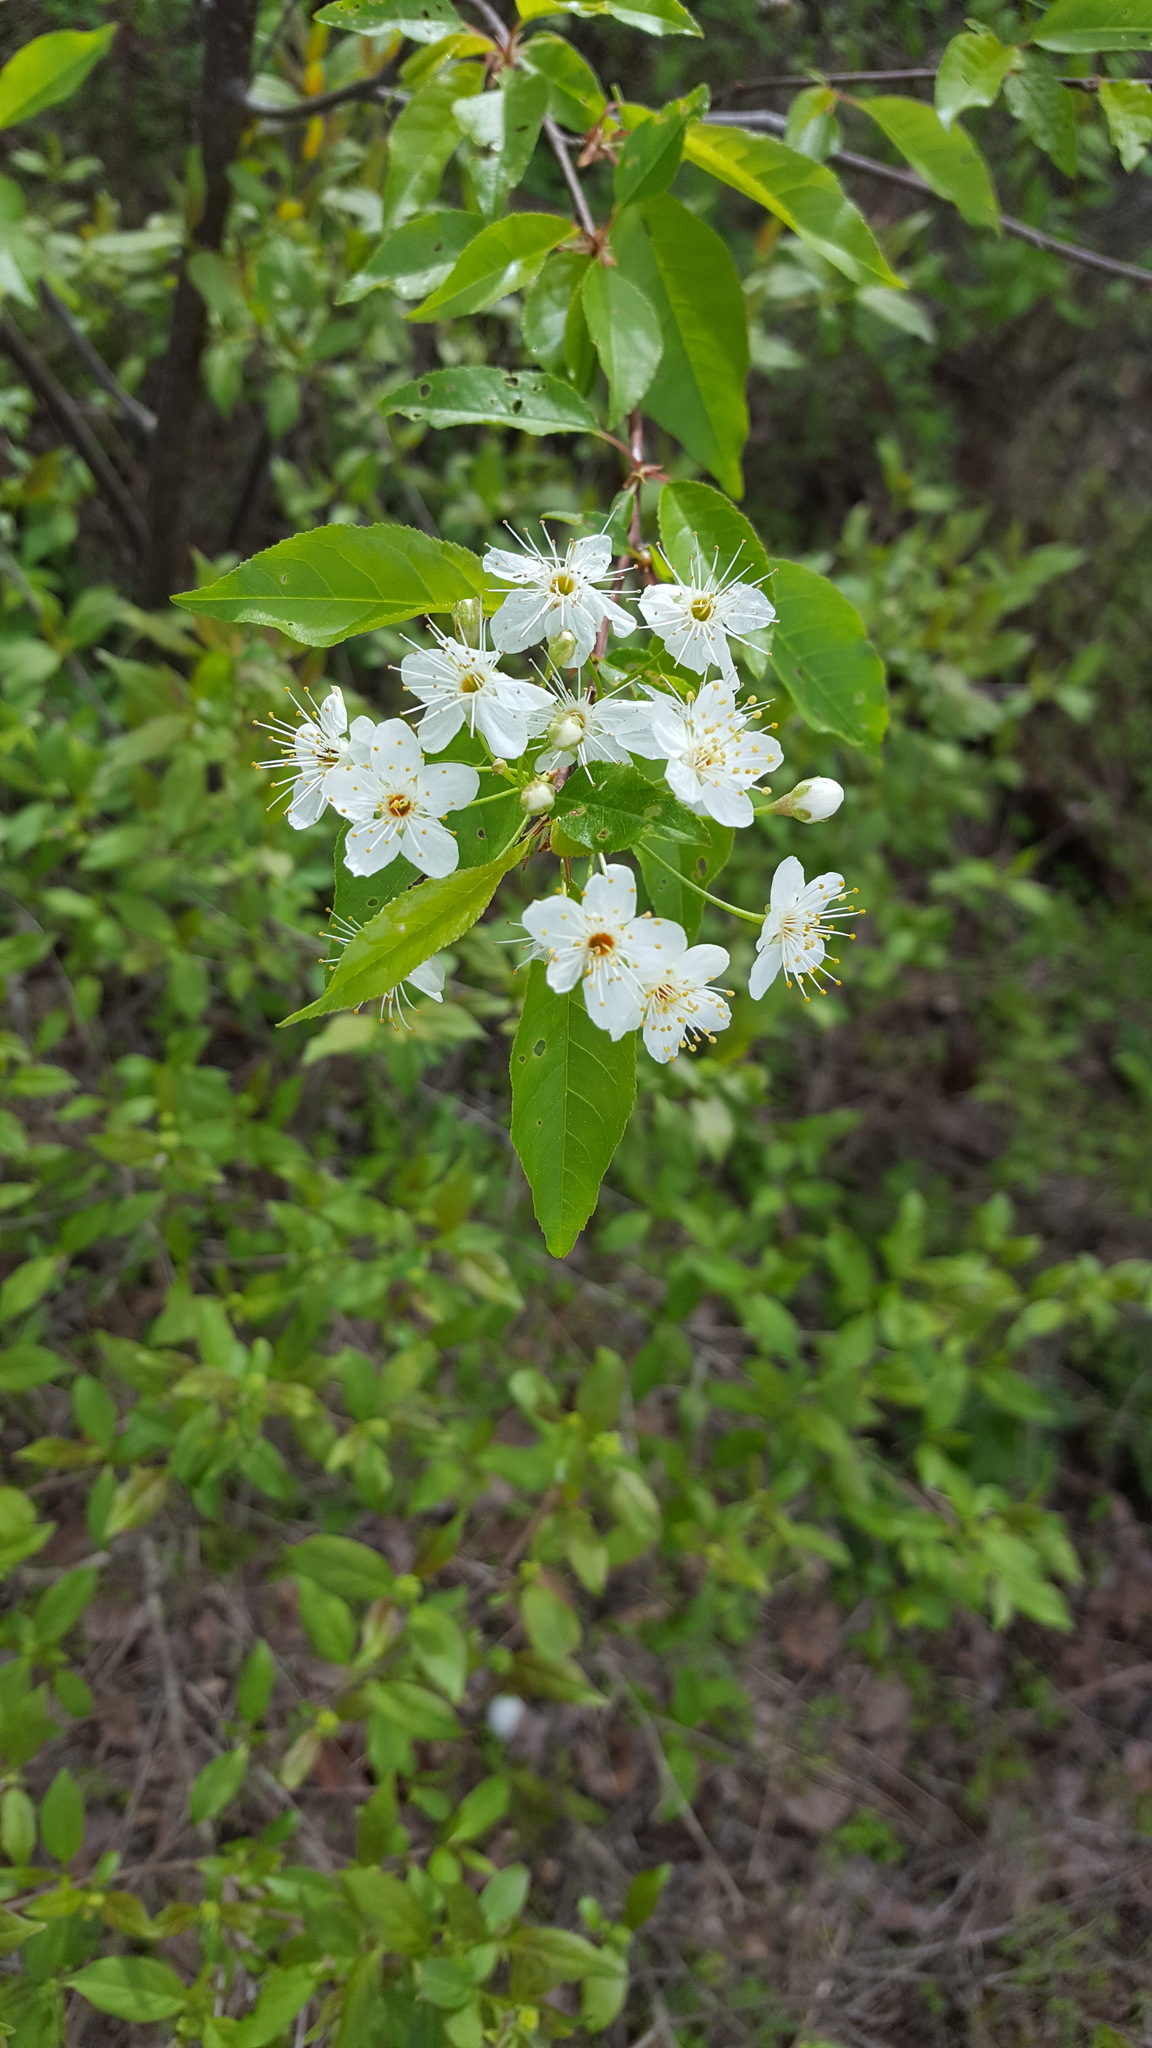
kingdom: Plantae
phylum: Tracheophyta
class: Magnoliopsida
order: Rosales
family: Rosaceae
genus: Prunus
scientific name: Prunus pensylvanica
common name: Pin cherry
